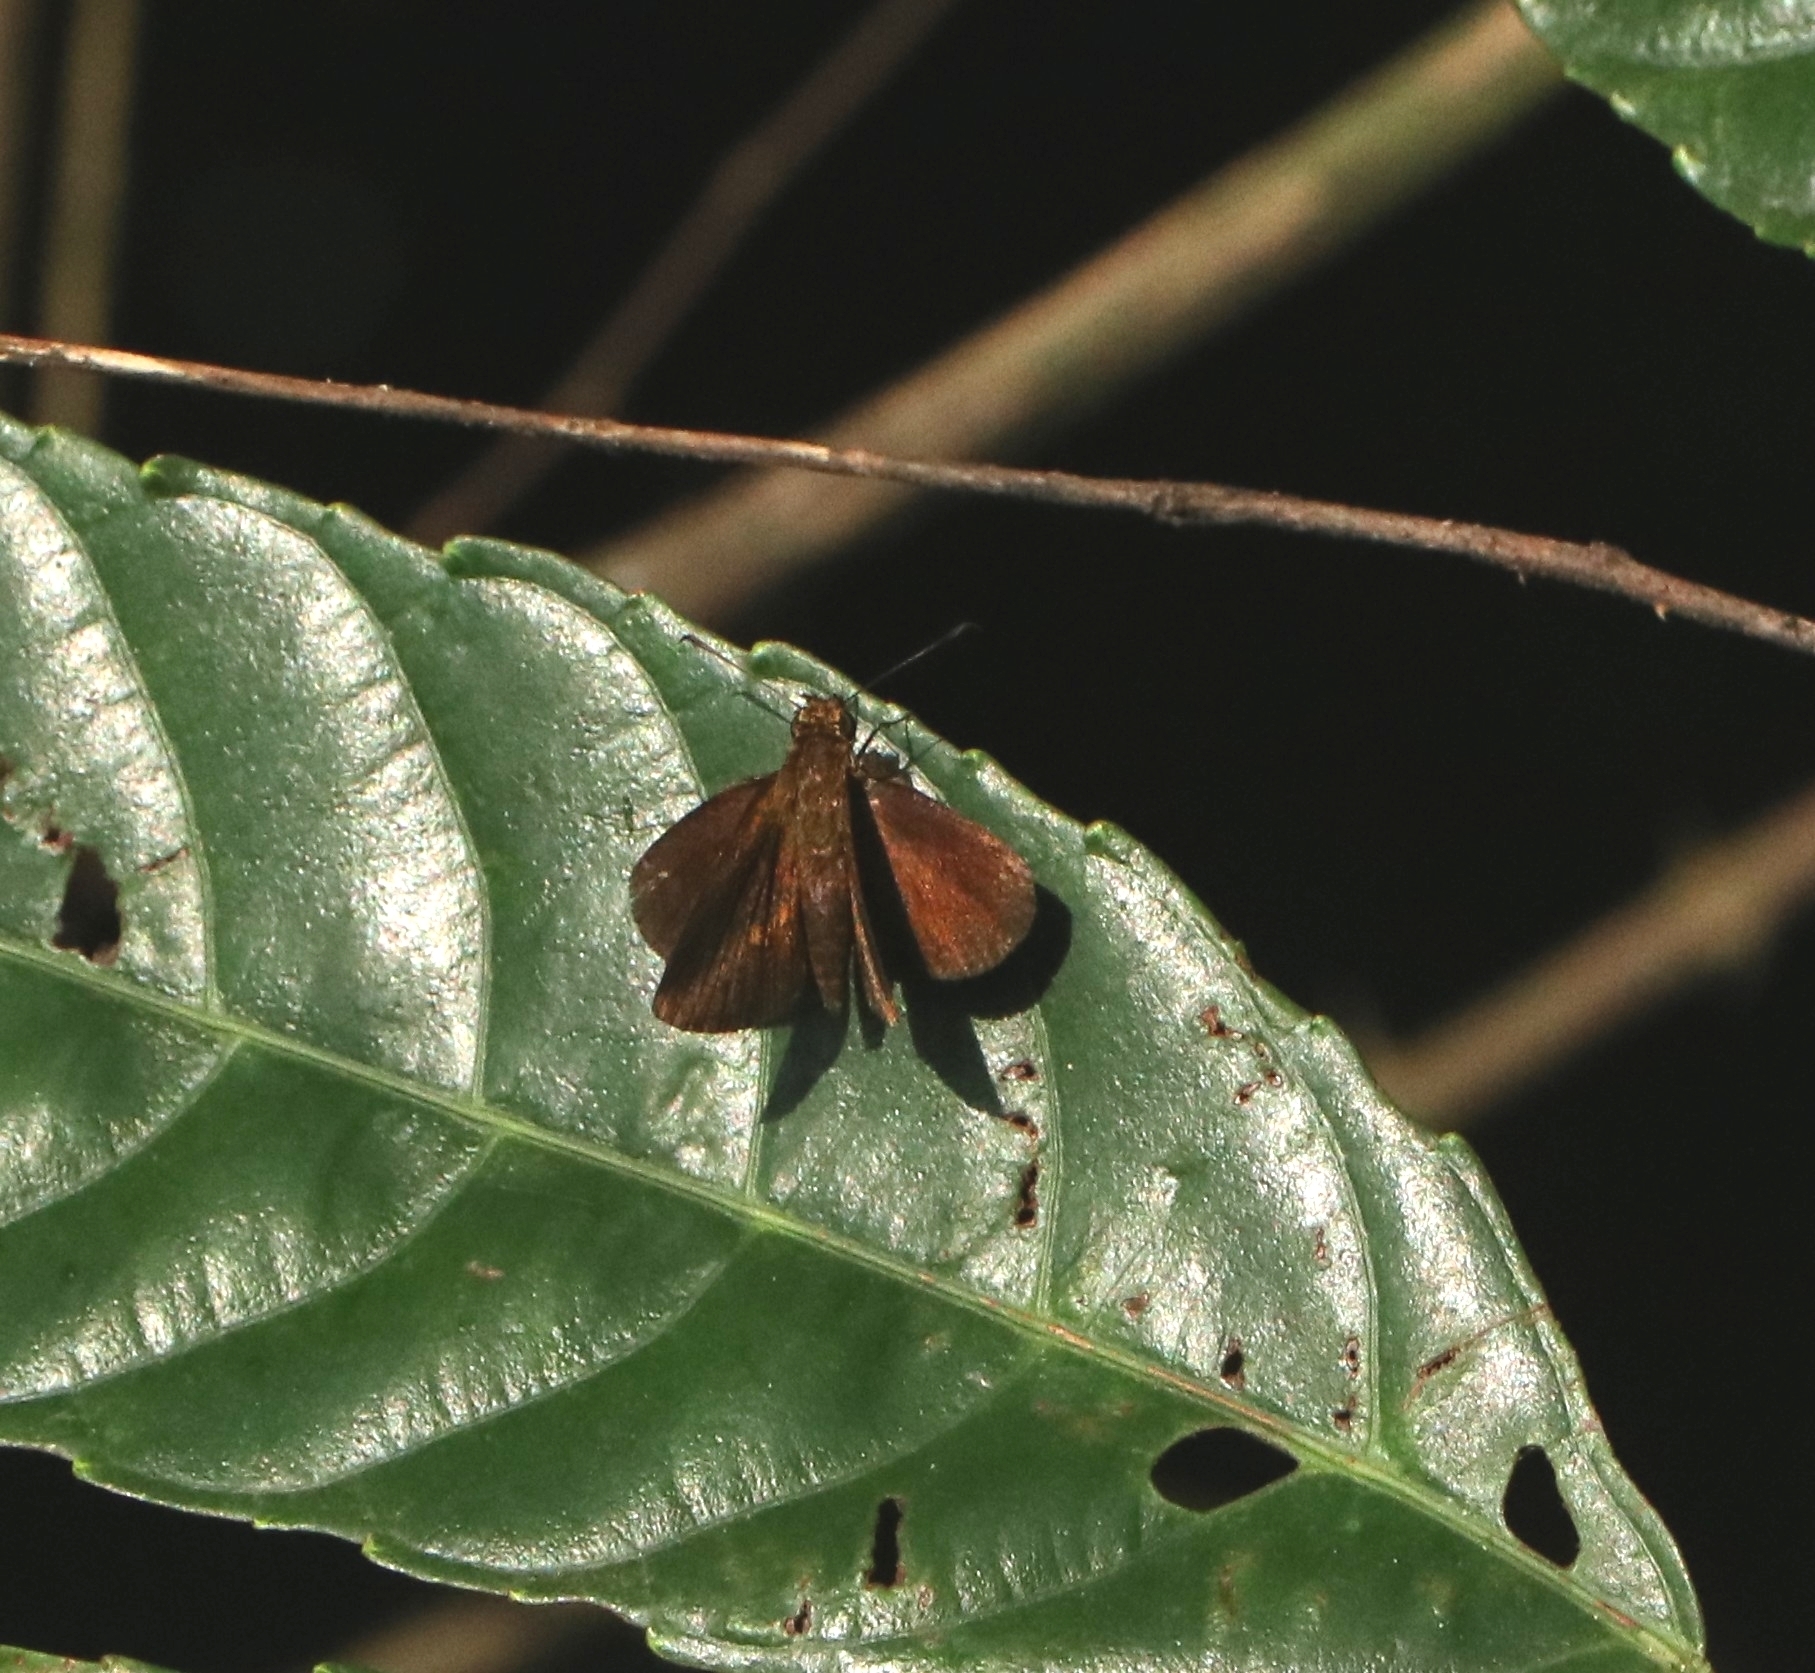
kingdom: Animalia
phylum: Arthropoda
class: Insecta
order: Lepidoptera
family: Hesperiidae
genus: Iambrix
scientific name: Iambrix salsala
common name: Chestnut bob
